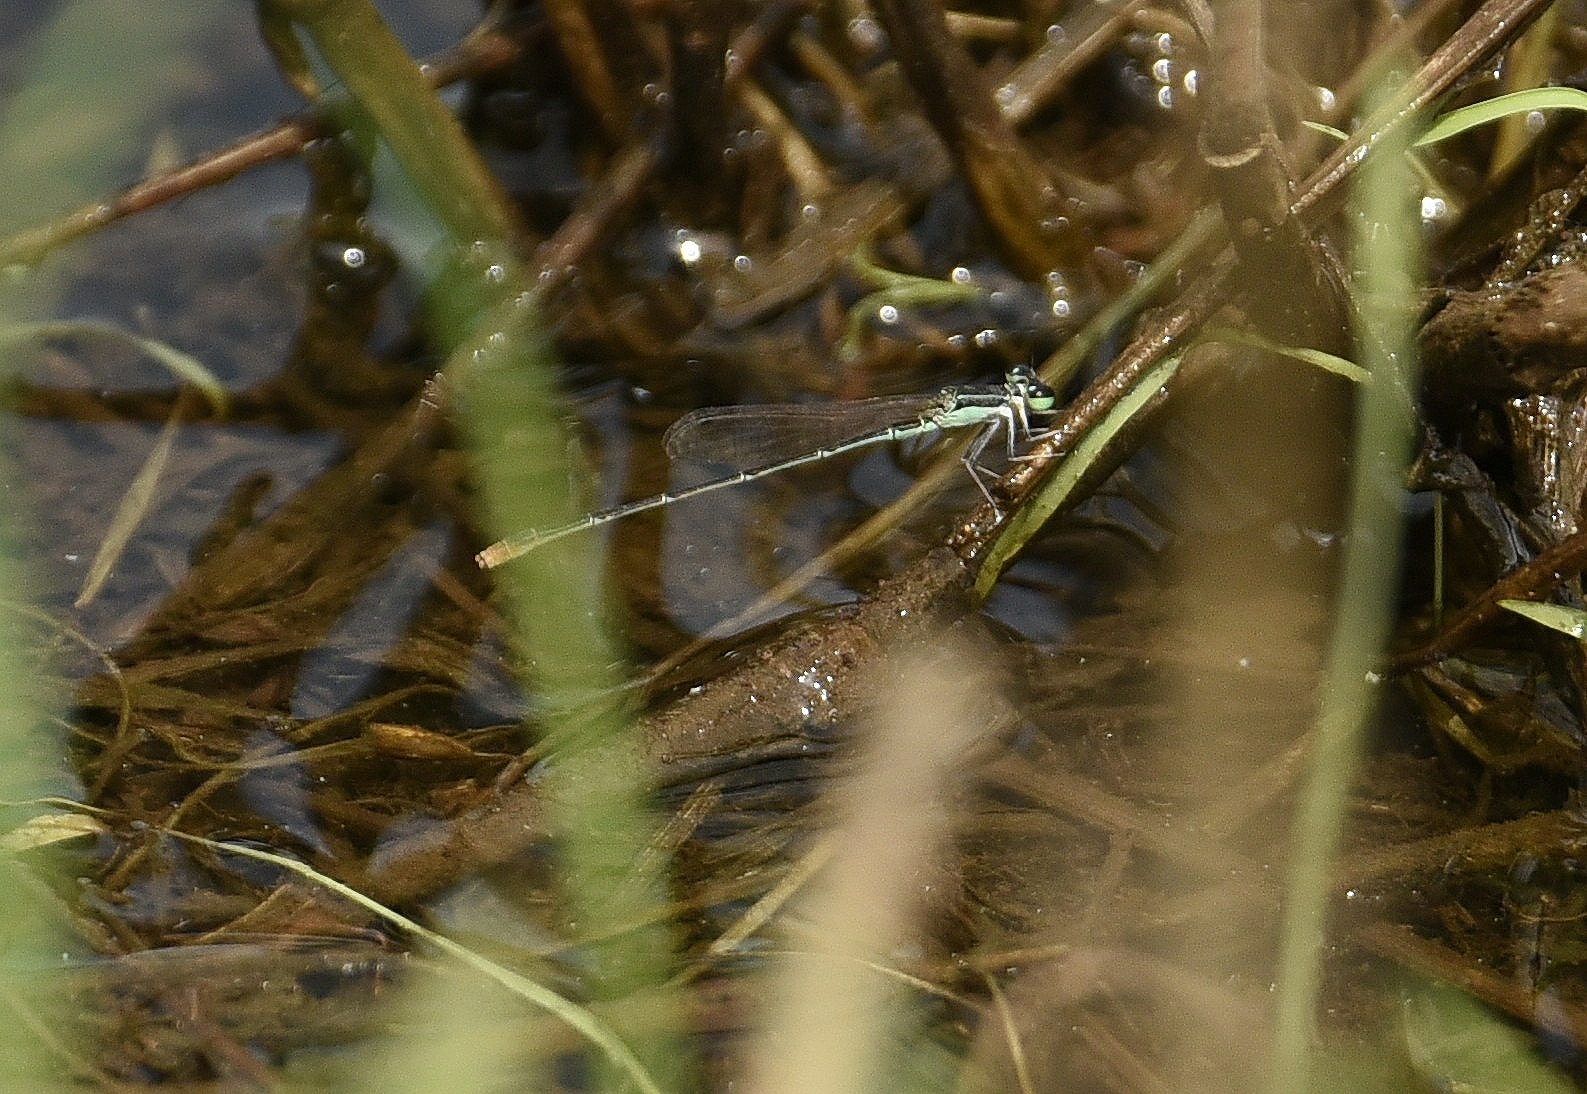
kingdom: Animalia
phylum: Arthropoda
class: Insecta
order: Odonata
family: Coenagrionidae
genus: Agriocnemis
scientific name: Agriocnemis pygmaea
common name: Pygmy wisp
